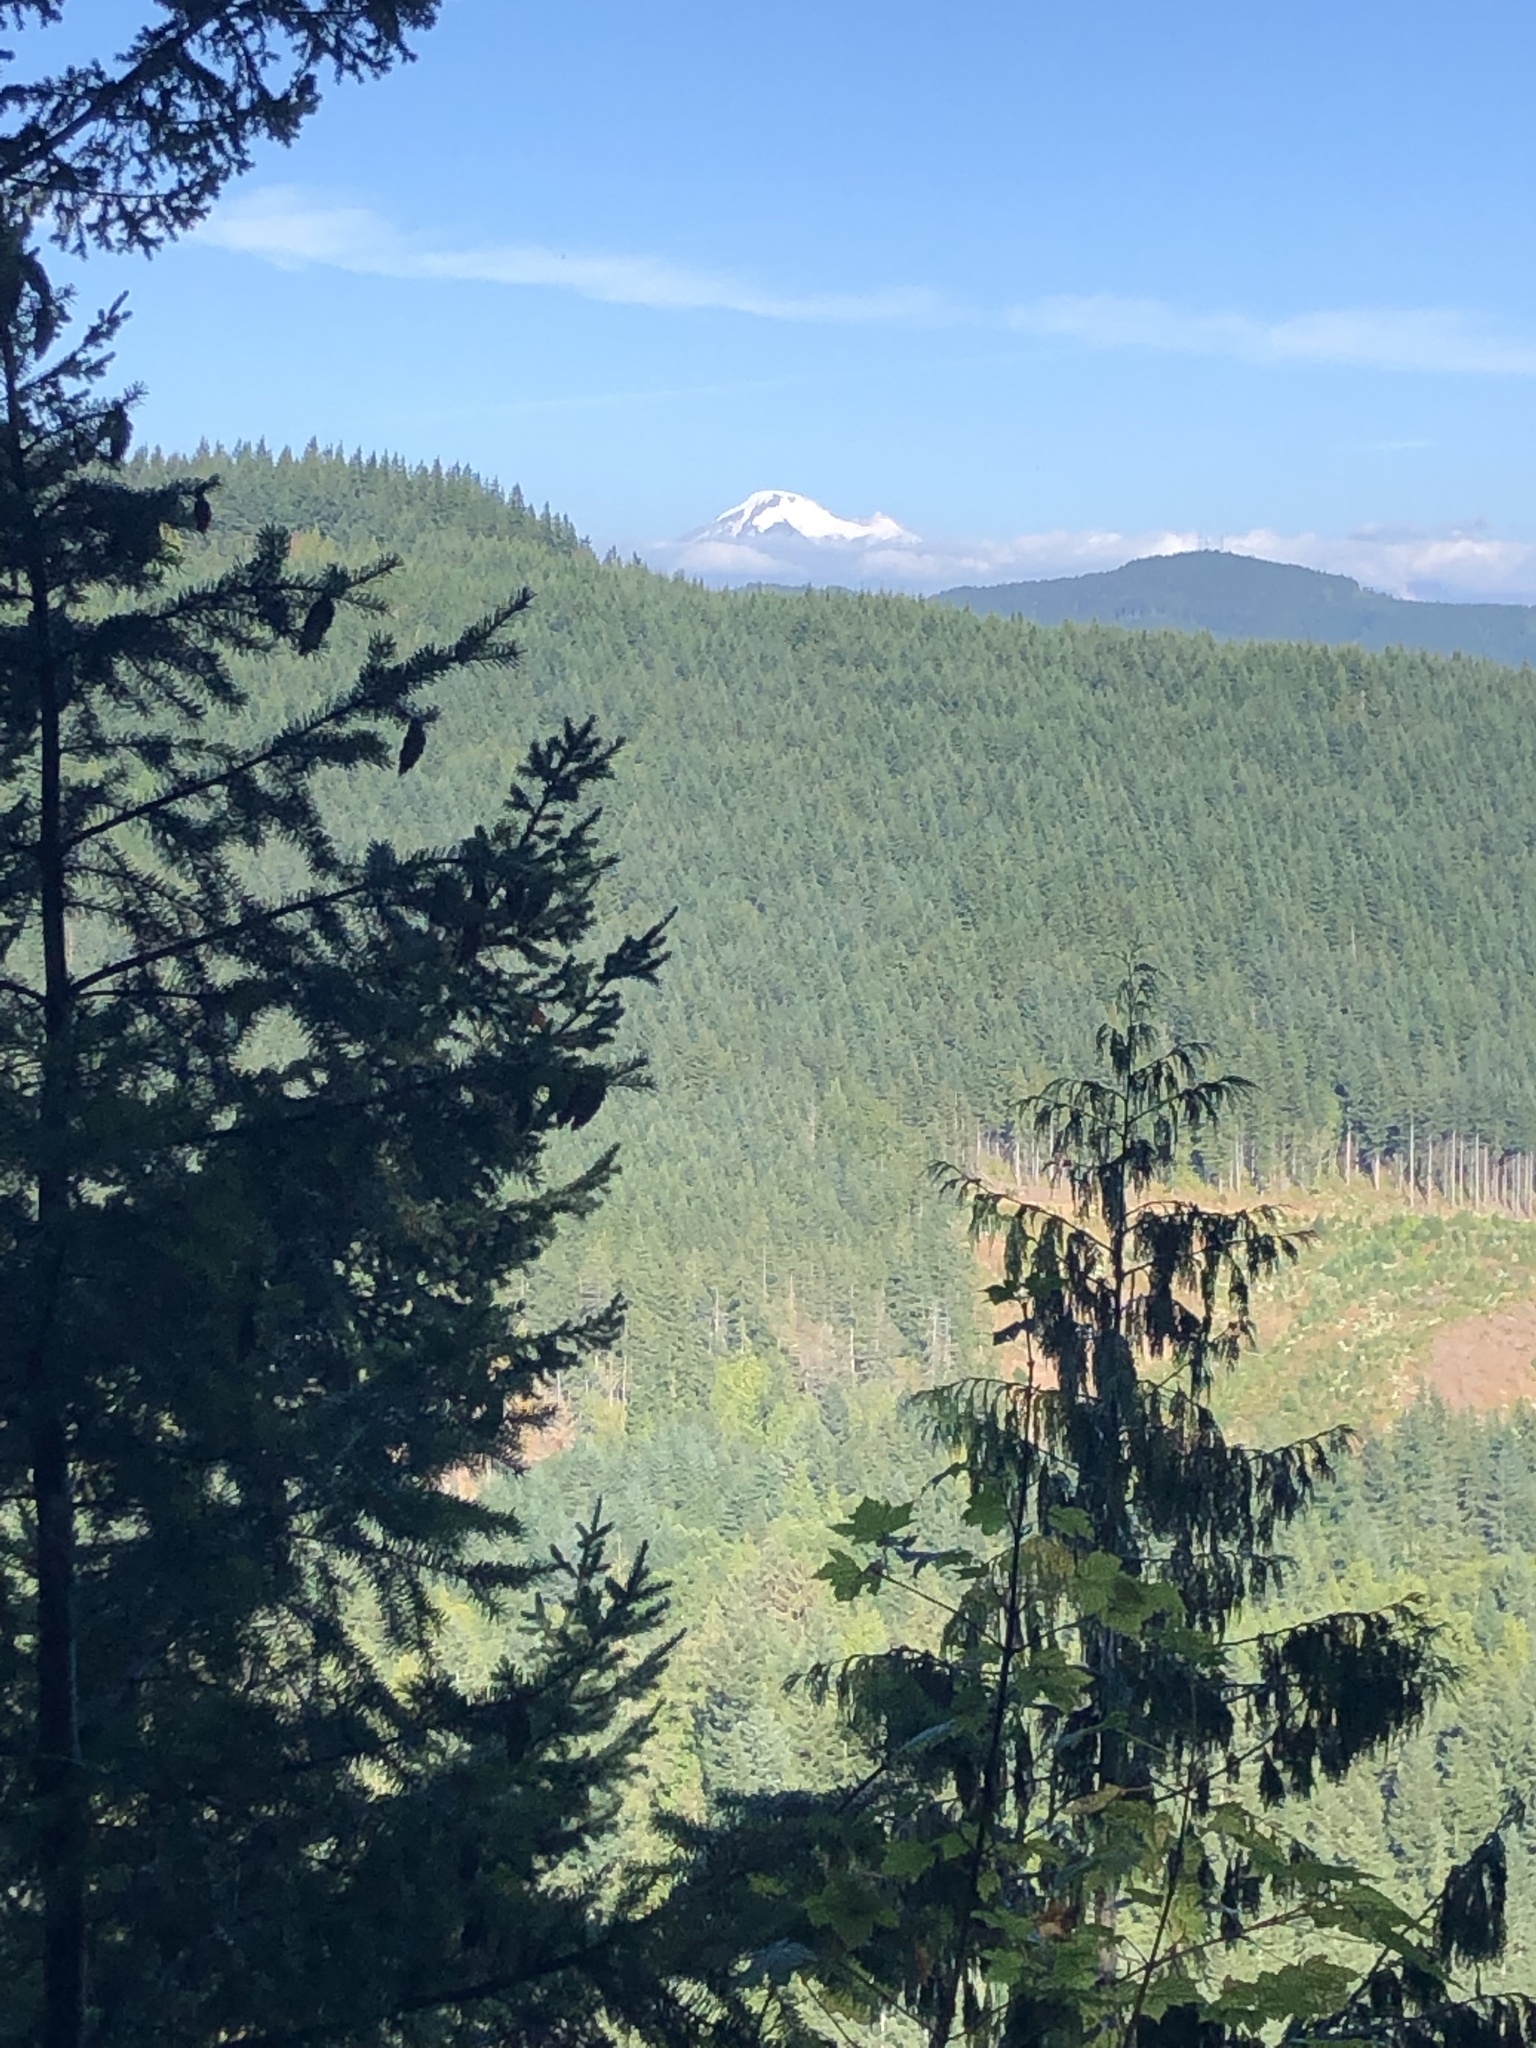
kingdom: Plantae
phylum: Tracheophyta
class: Pinopsida
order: Pinales
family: Cupressaceae
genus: Thuja
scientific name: Thuja plicata
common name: Western red-cedar
